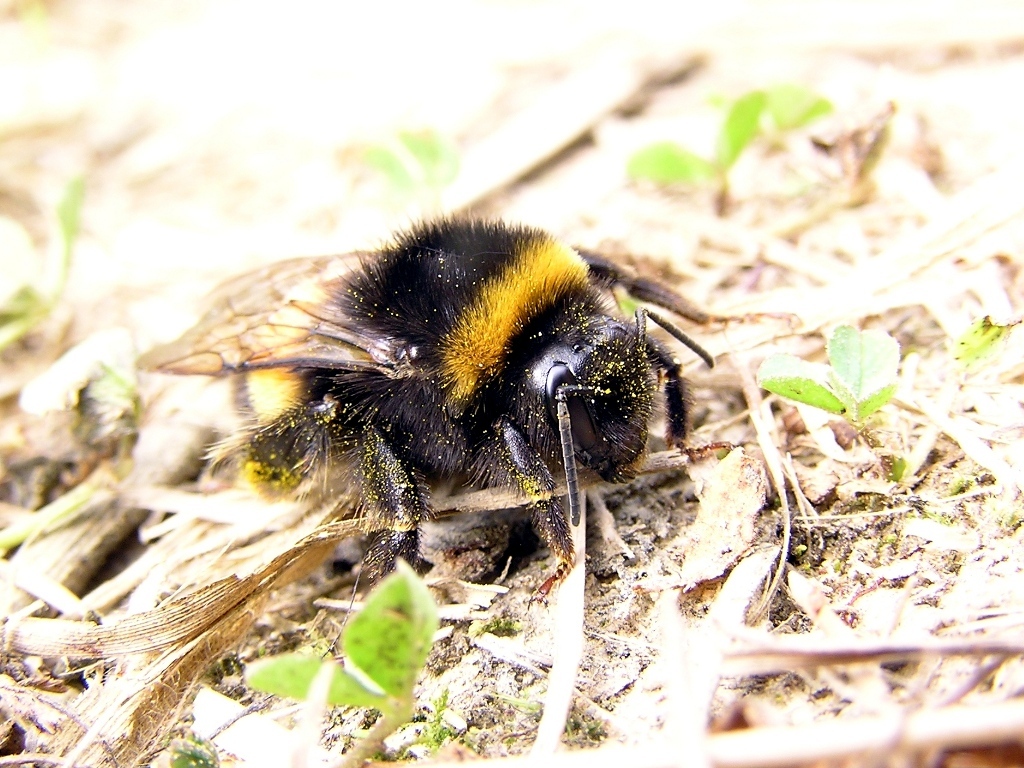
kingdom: Animalia
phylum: Arthropoda
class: Insecta
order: Hymenoptera
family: Apidae
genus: Bombus
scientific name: Bombus terrestris
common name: Buff-tailed bumblebee
